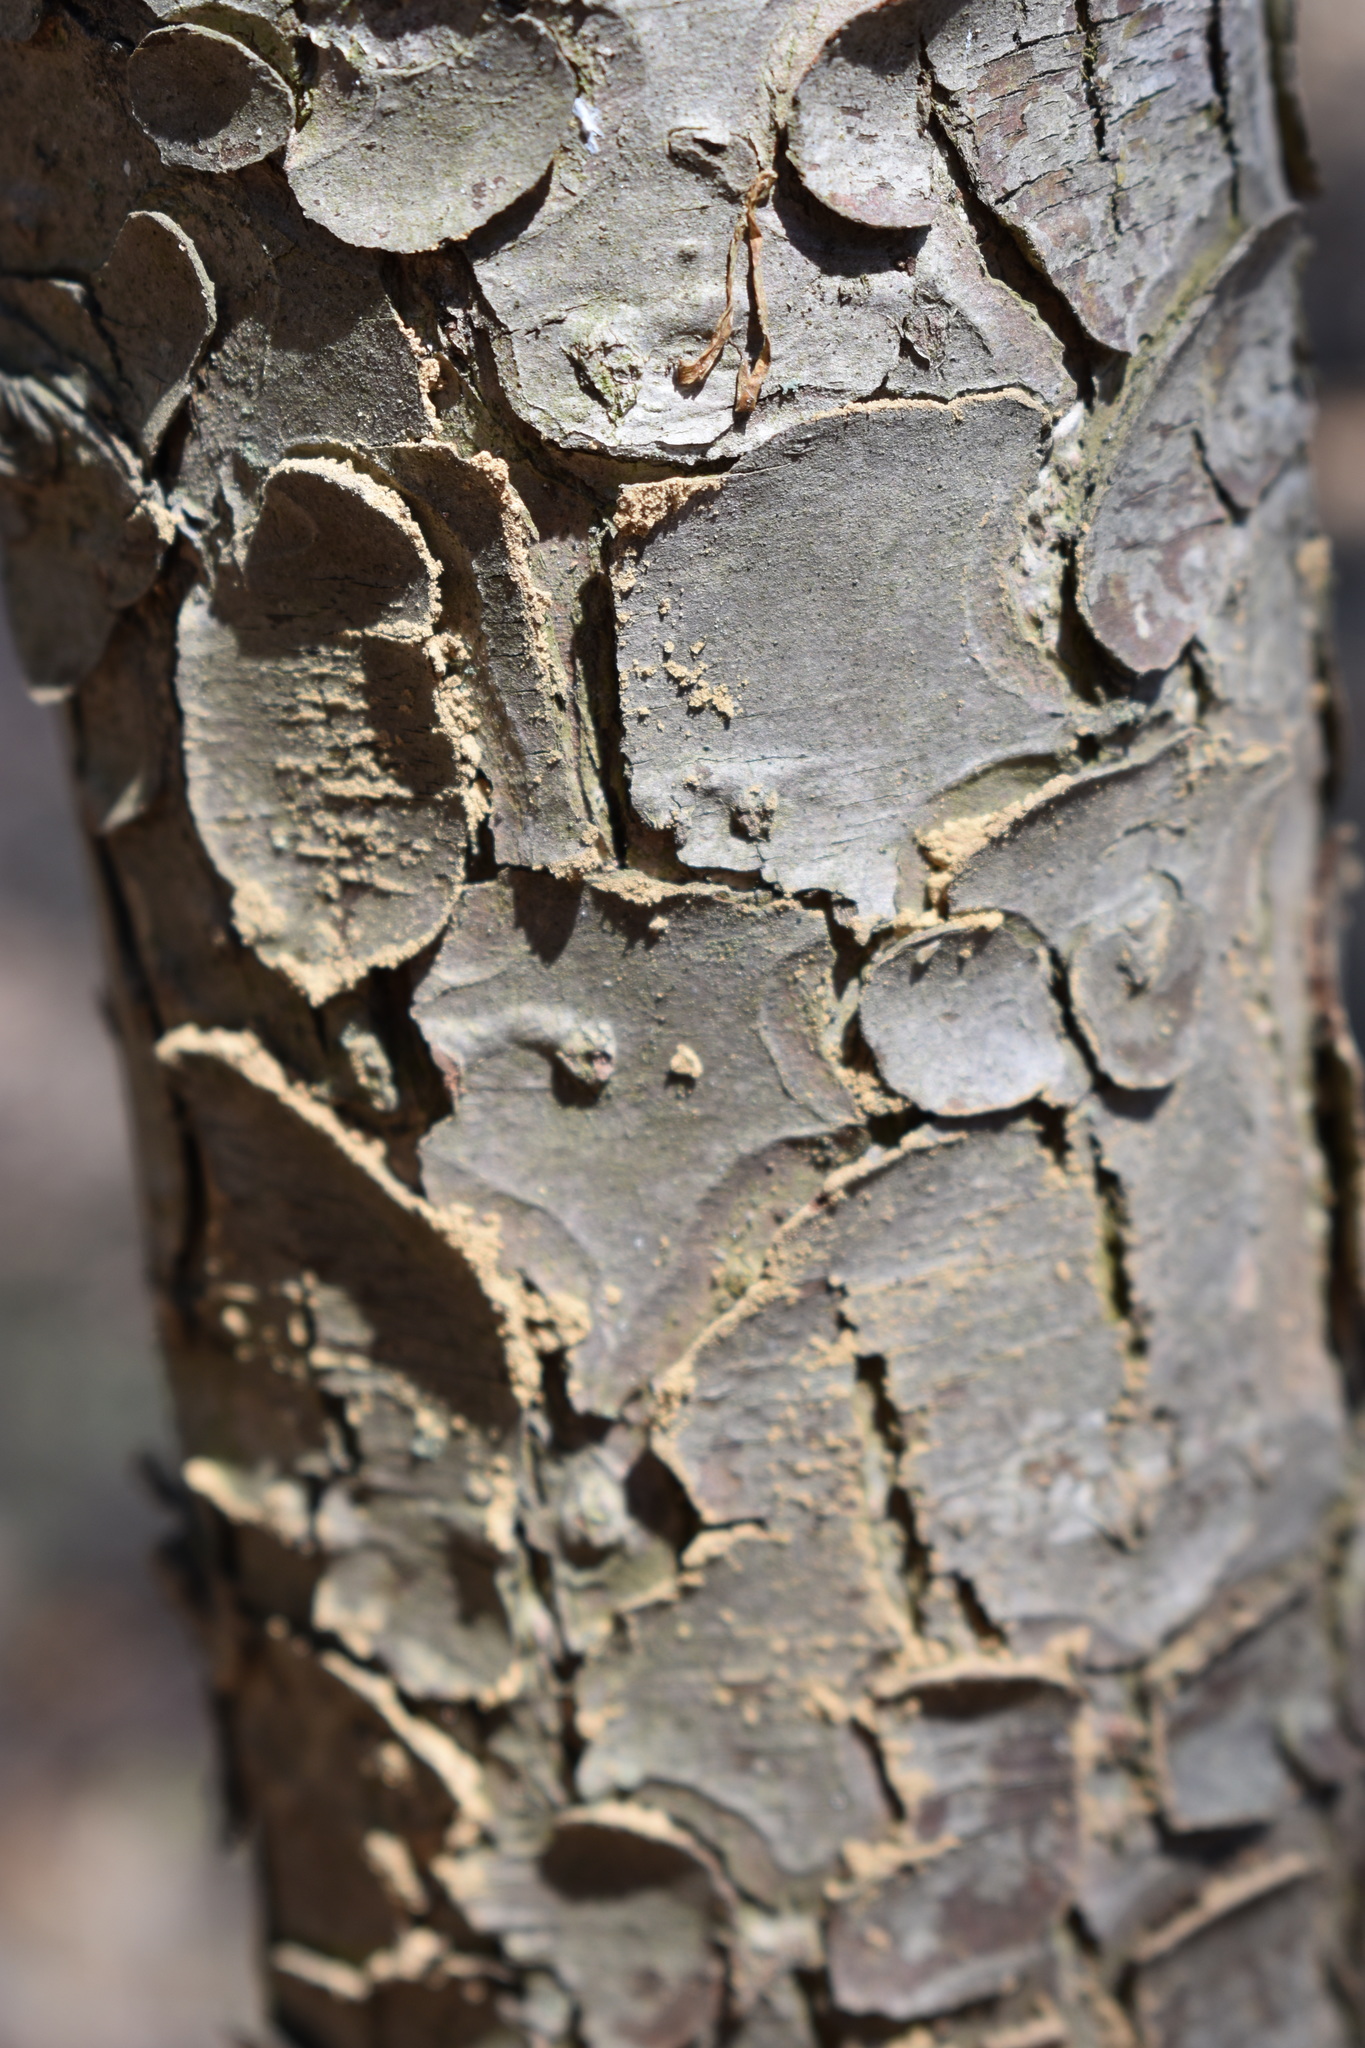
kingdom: Plantae
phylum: Tracheophyta
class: Pinopsida
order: Pinales
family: Pinaceae
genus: Tsuga
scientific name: Tsuga canadensis
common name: Eastern hemlock
